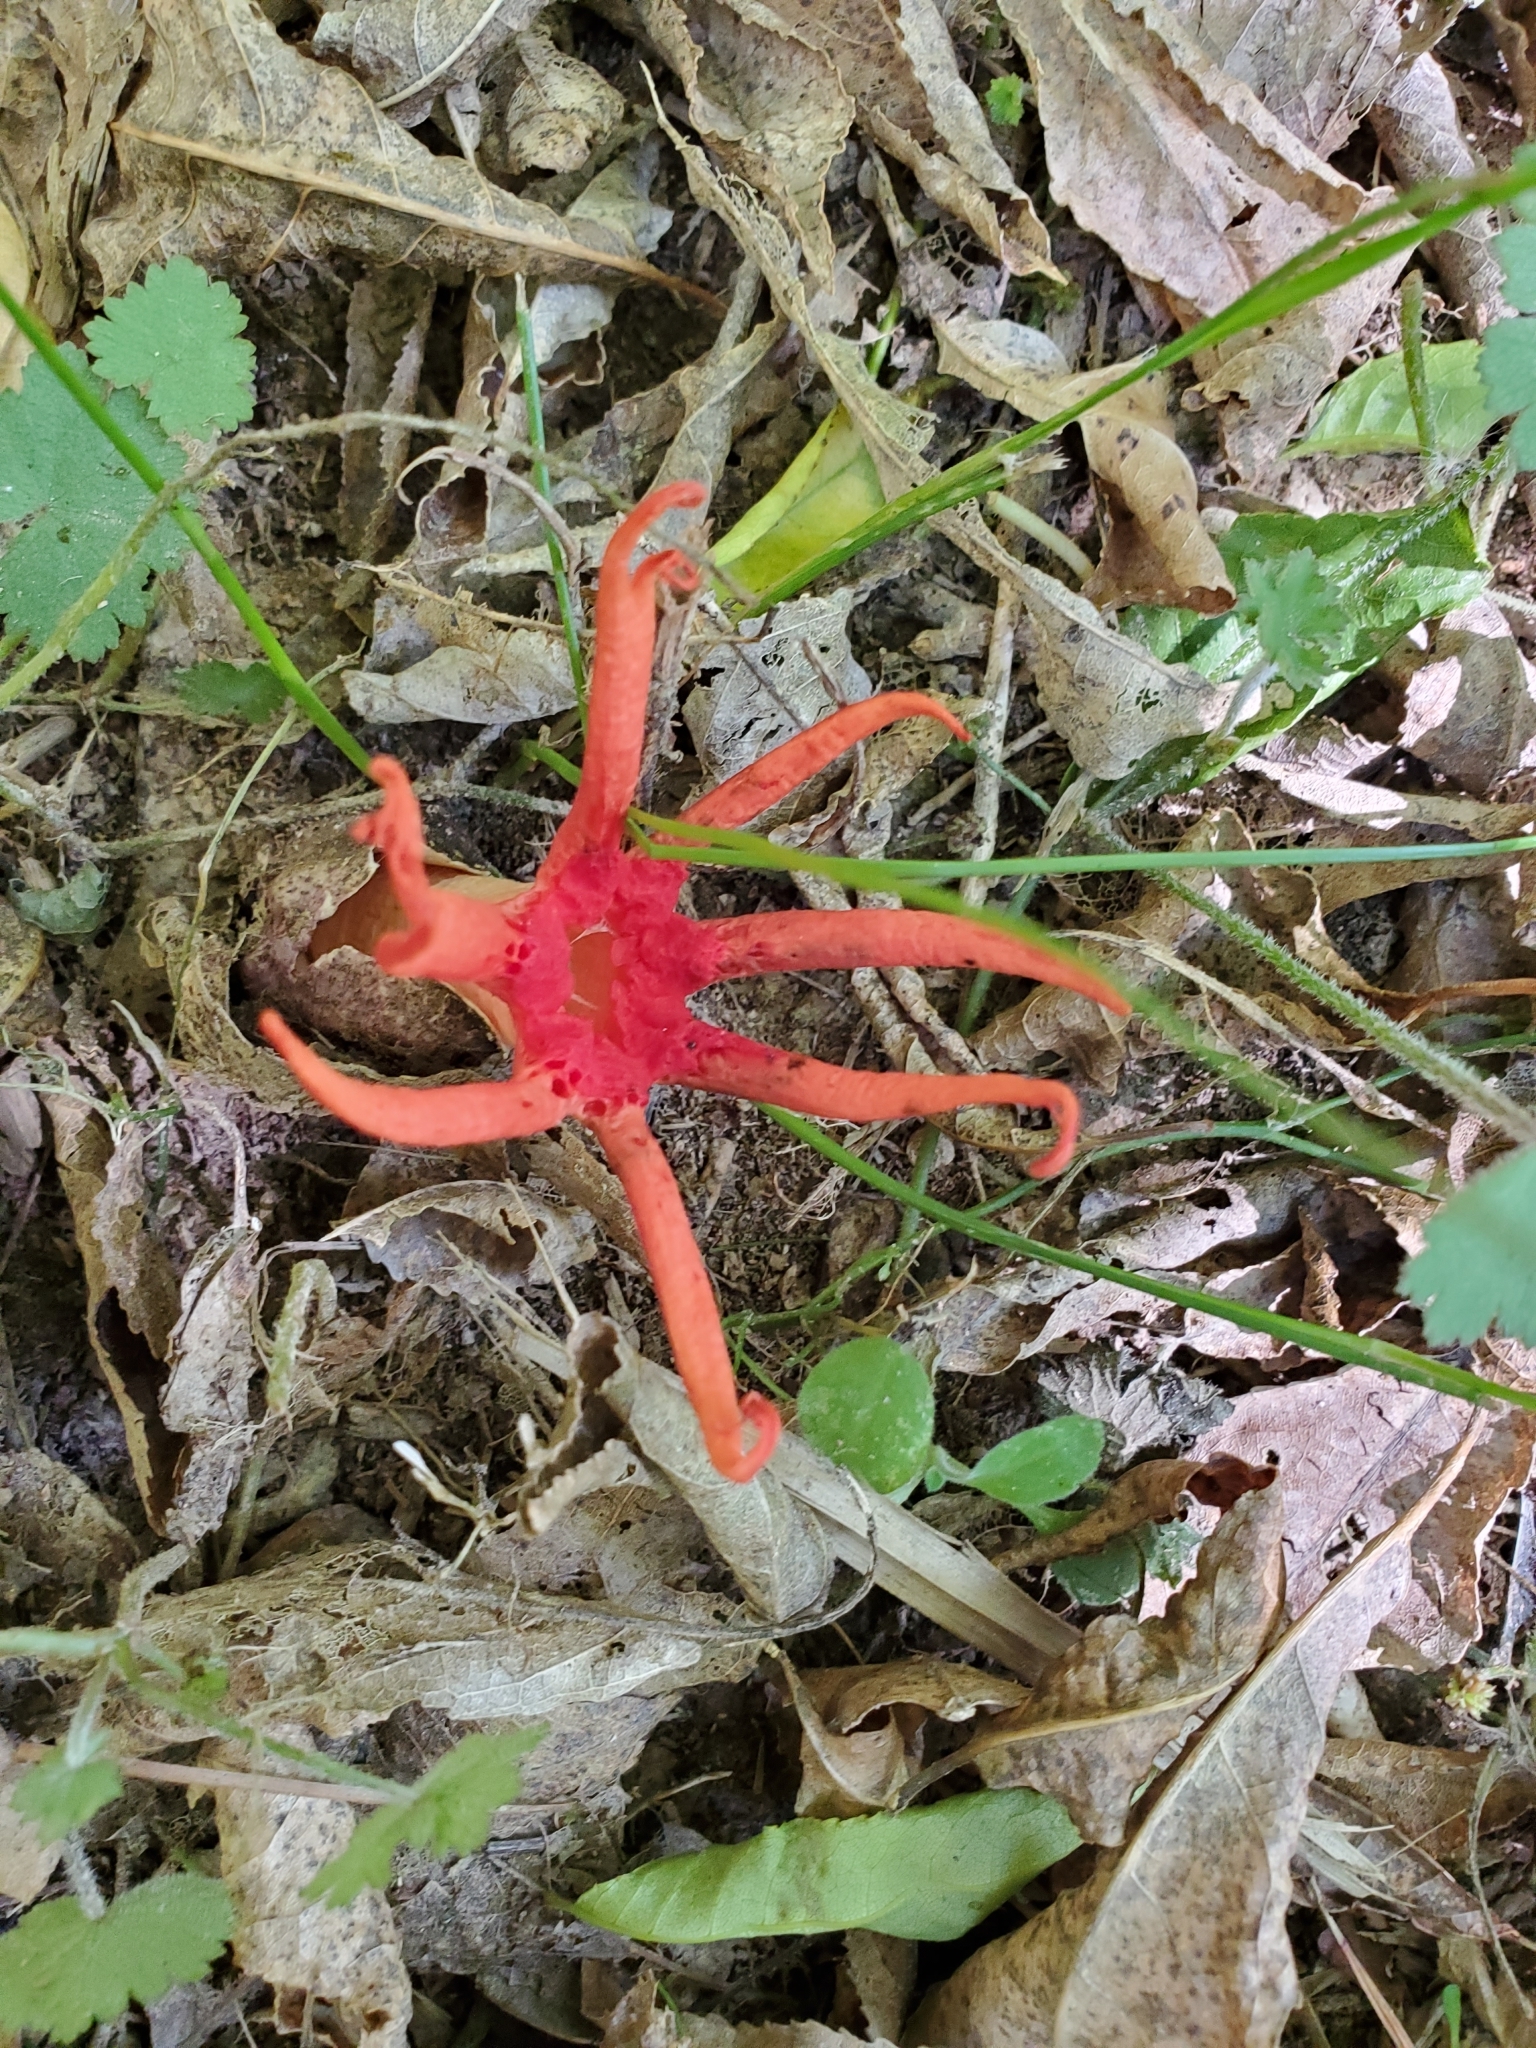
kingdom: Fungi
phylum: Basidiomycota
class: Agaricomycetes
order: Phallales
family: Phallaceae
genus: Aseroe
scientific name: Aseroe rubra
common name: Starfish fungus
